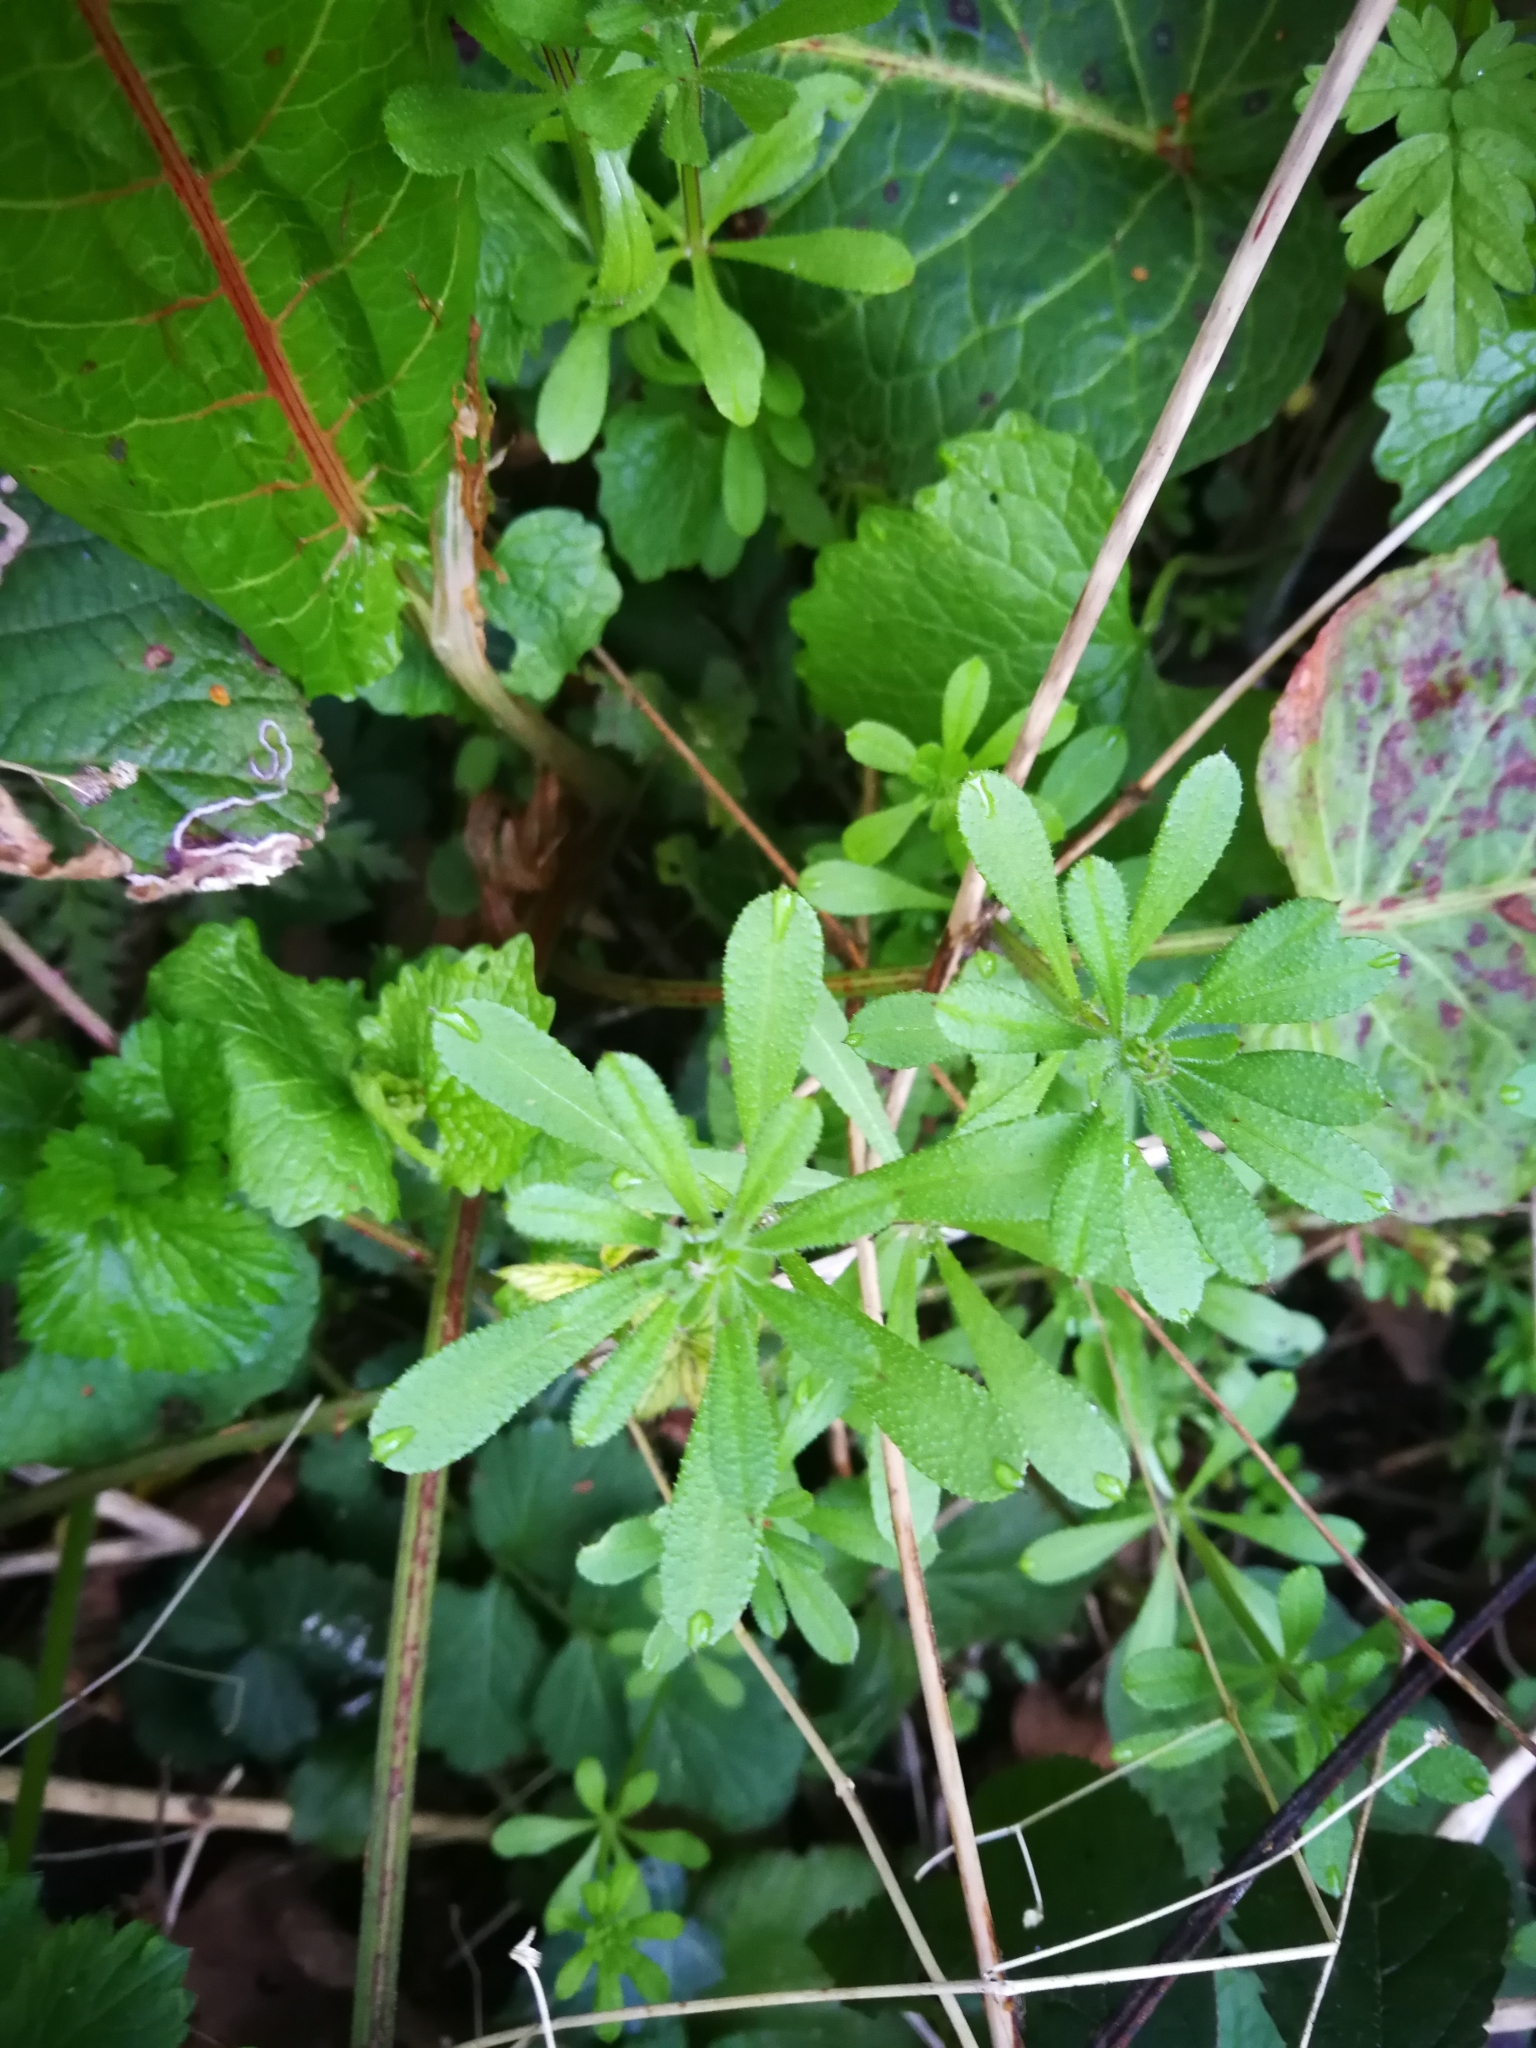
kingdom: Plantae
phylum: Tracheophyta
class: Magnoliopsida
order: Gentianales
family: Rubiaceae
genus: Galium
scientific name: Galium aparine
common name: Cleavers
